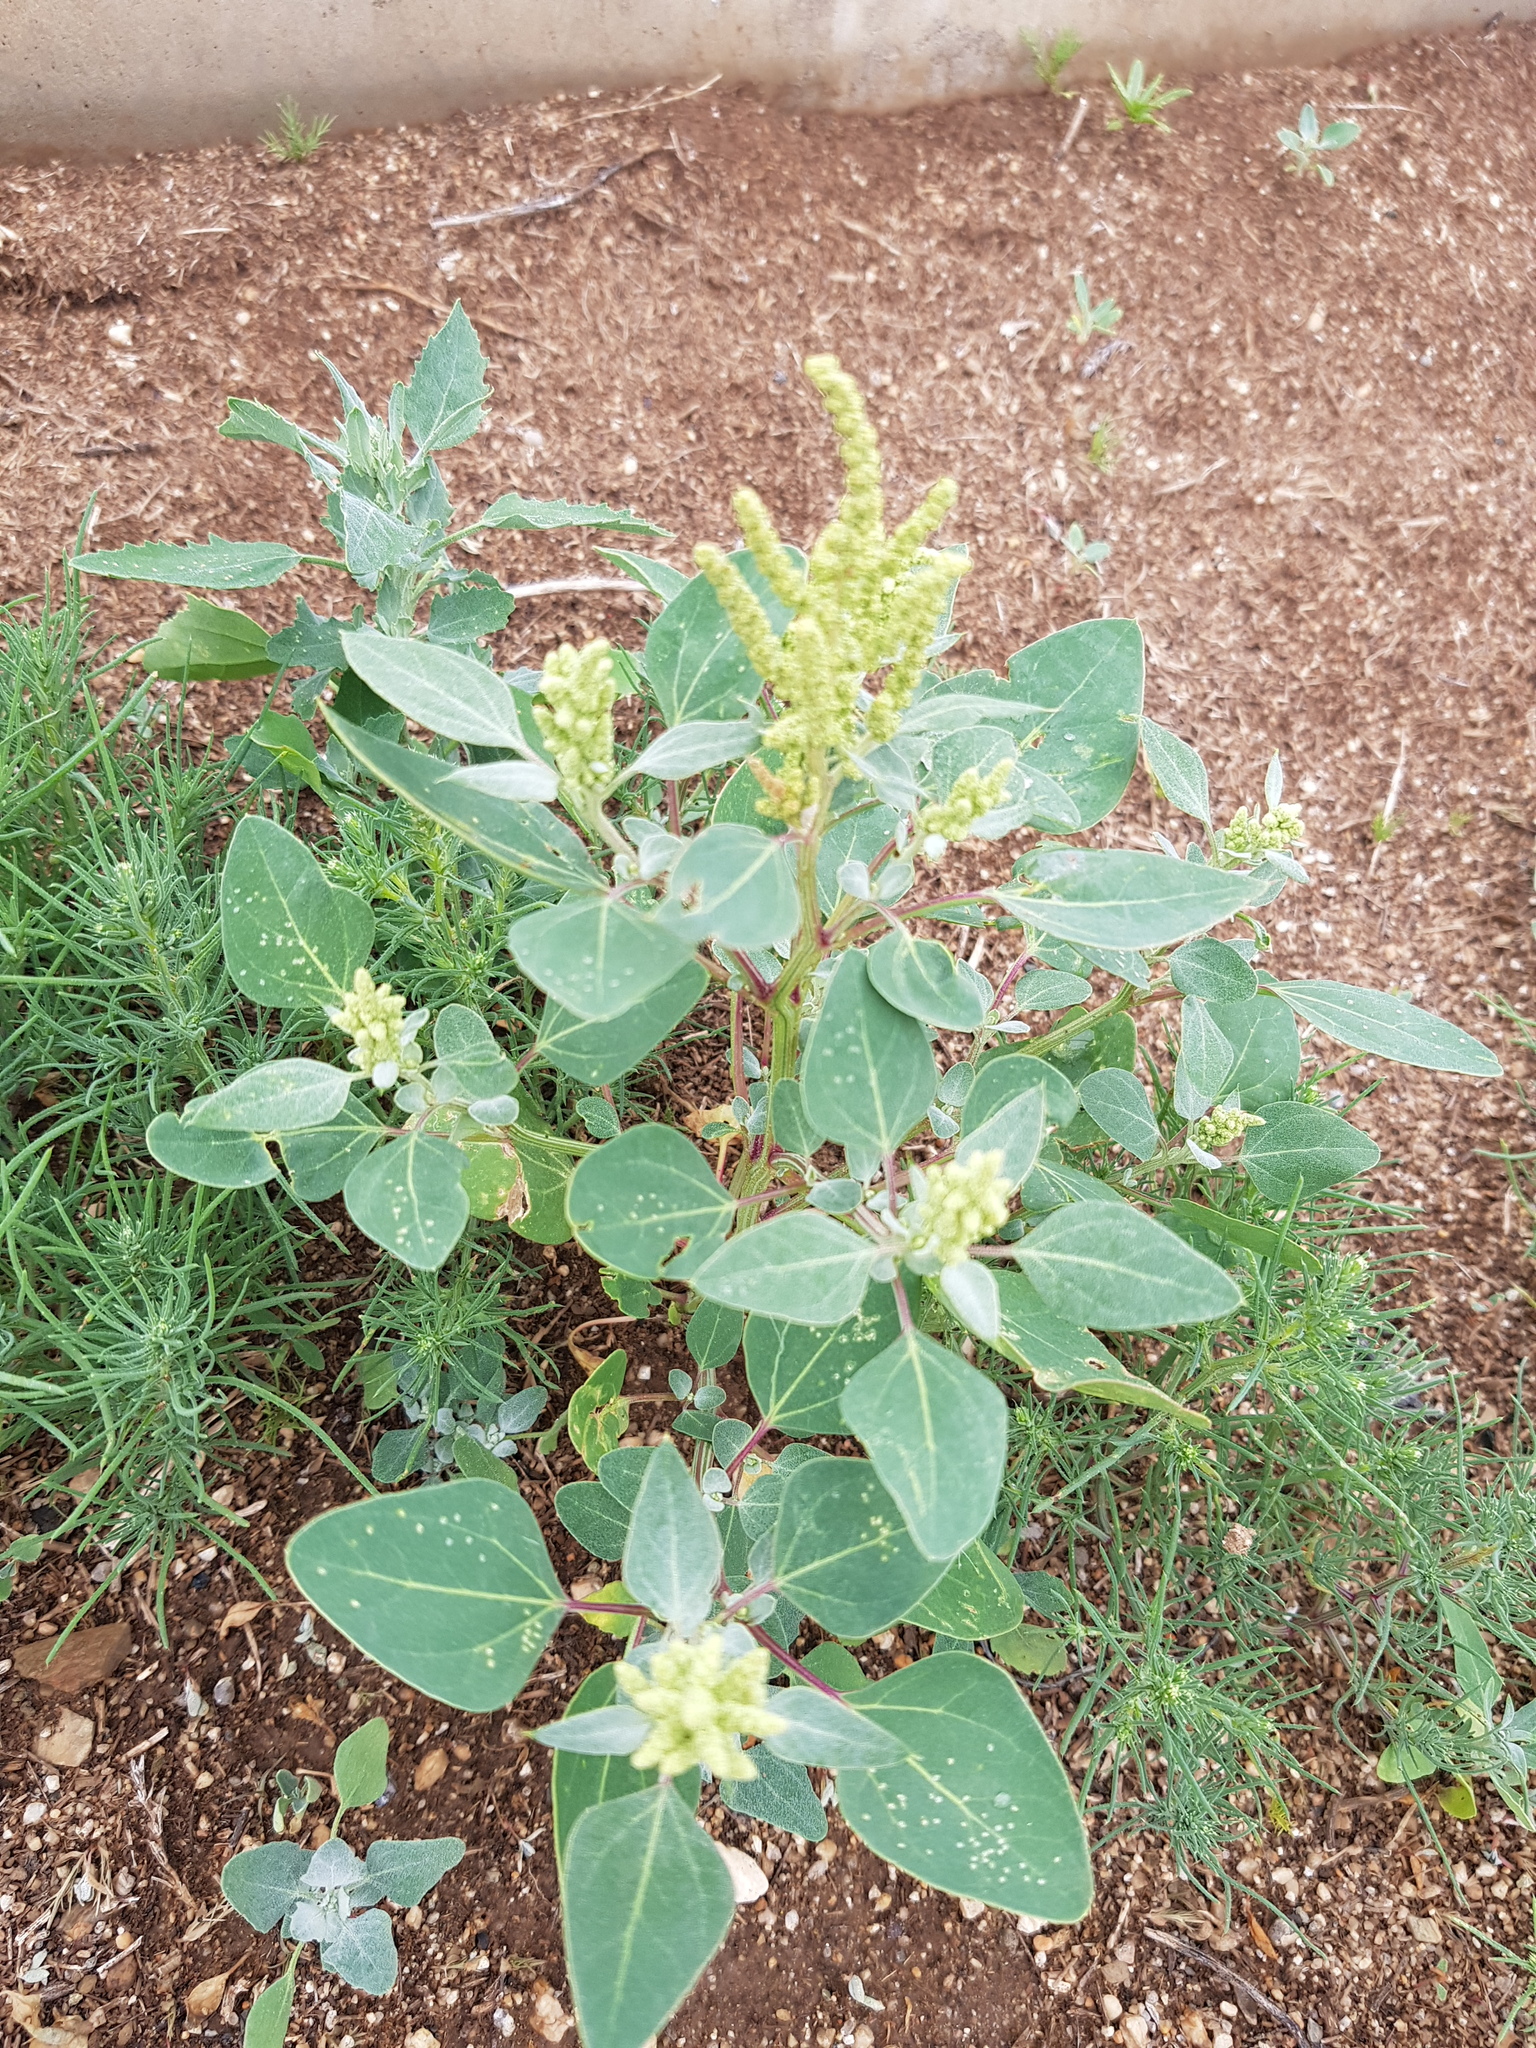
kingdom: Plantae
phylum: Tracheophyta
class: Magnoliopsida
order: Caryophyllales
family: Amaranthaceae
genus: Chenopodium
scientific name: Chenopodium acuminatum
